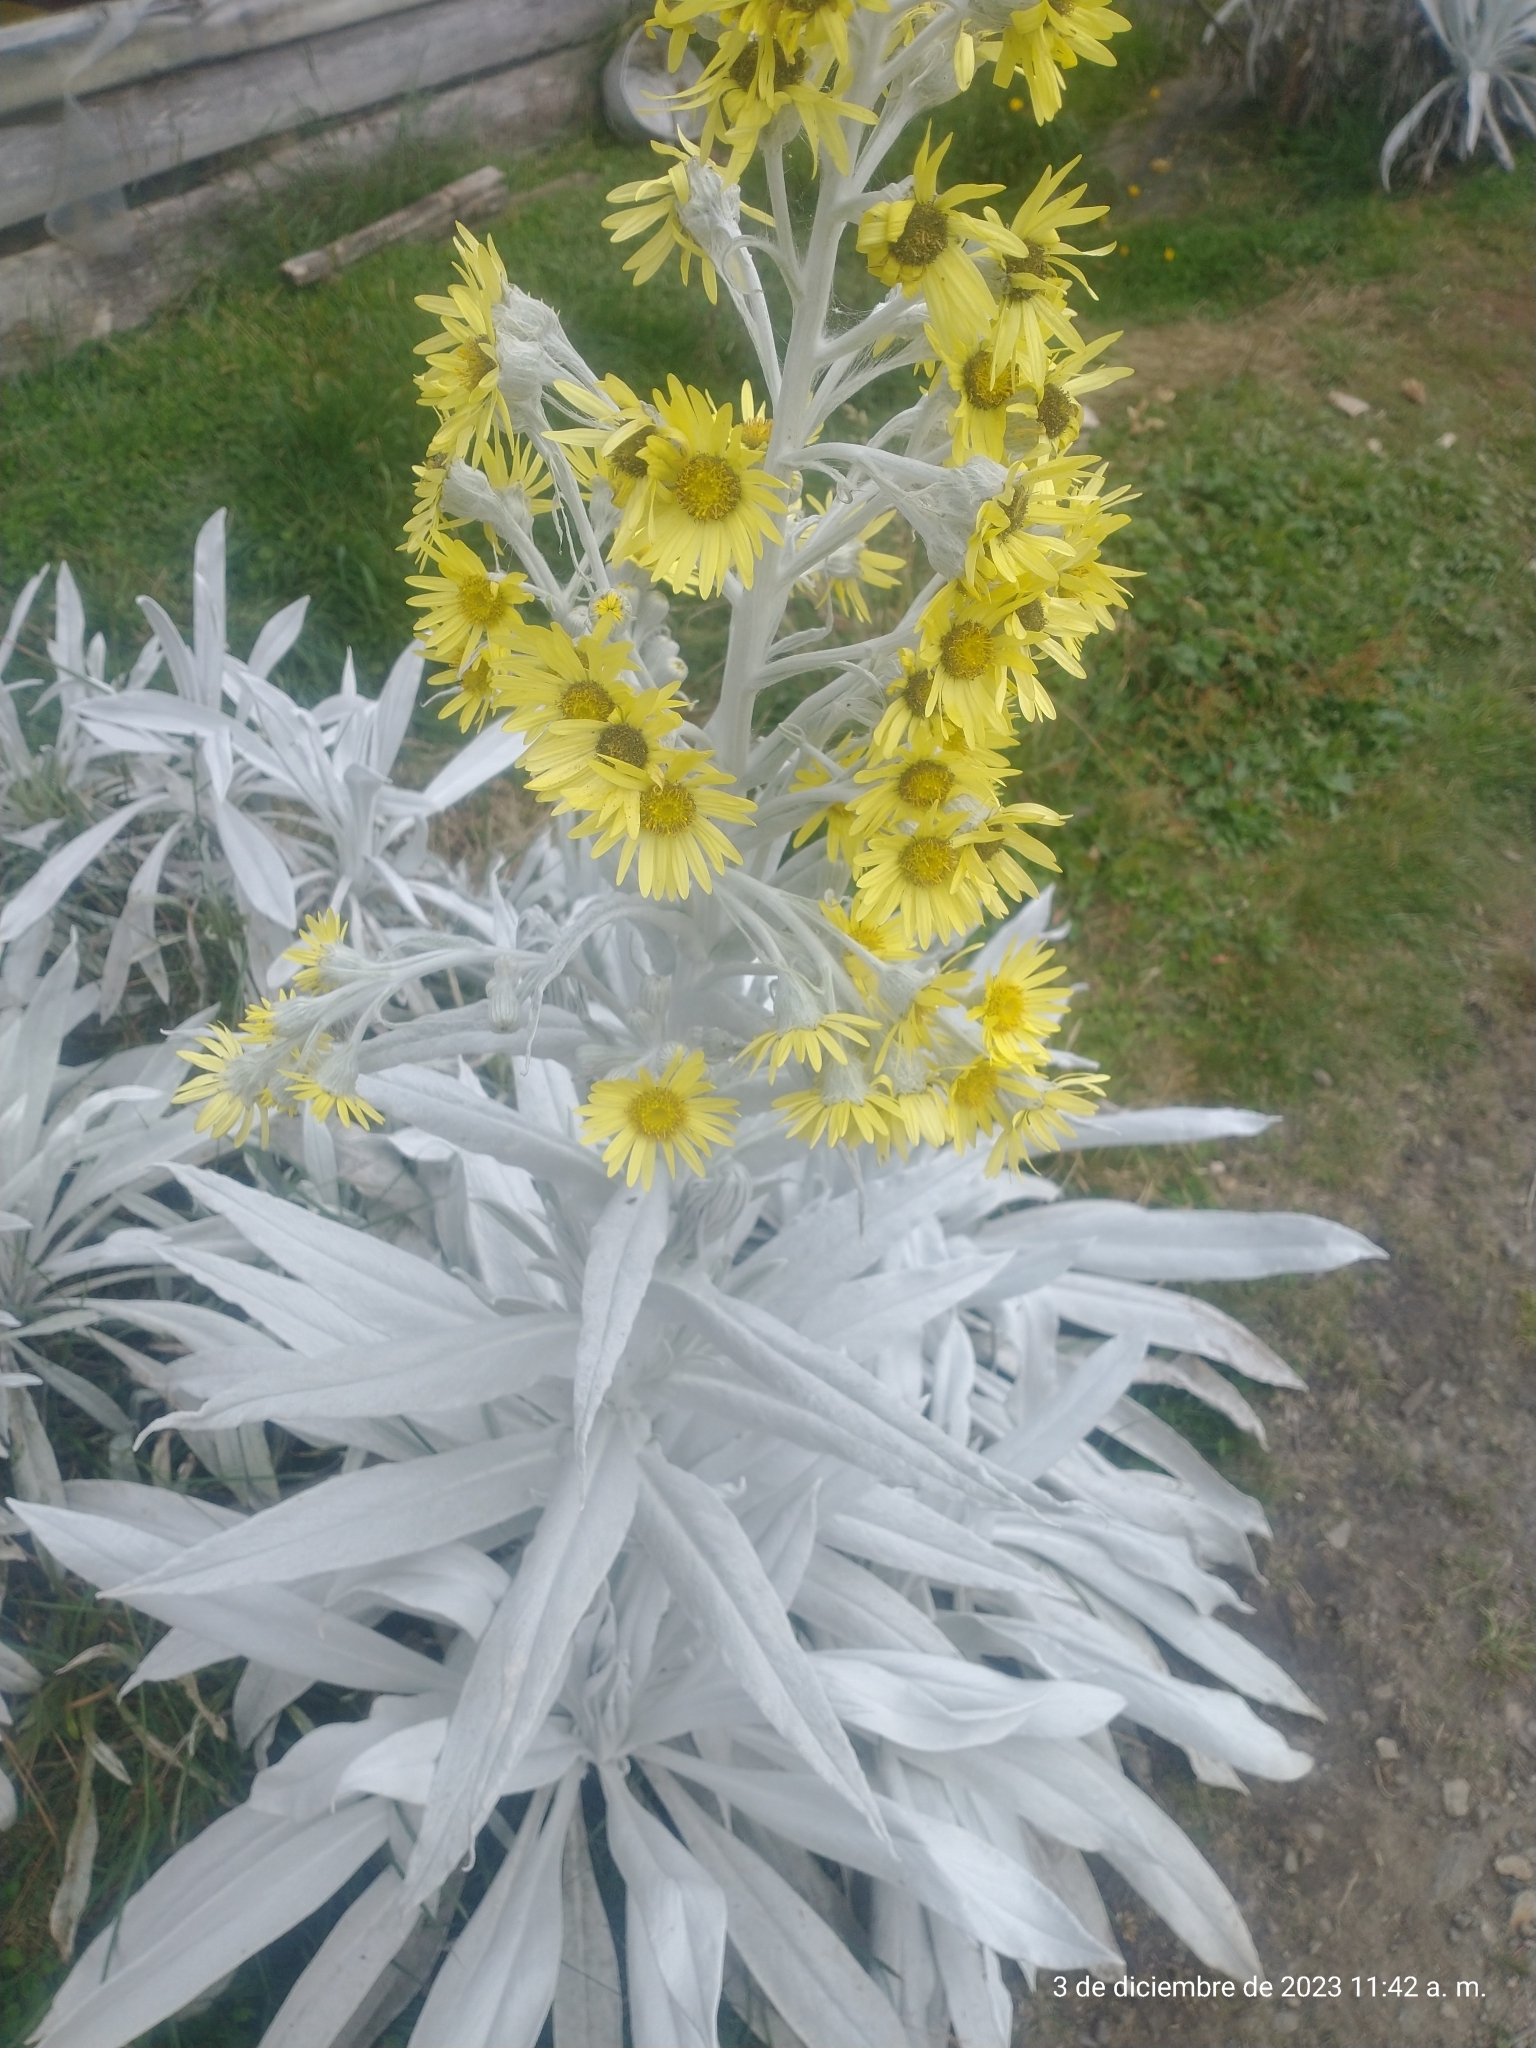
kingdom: Plantae
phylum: Tracheophyta
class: Magnoliopsida
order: Asterales
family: Asteraceae
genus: Senecio
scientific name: Senecio niveoaureus
